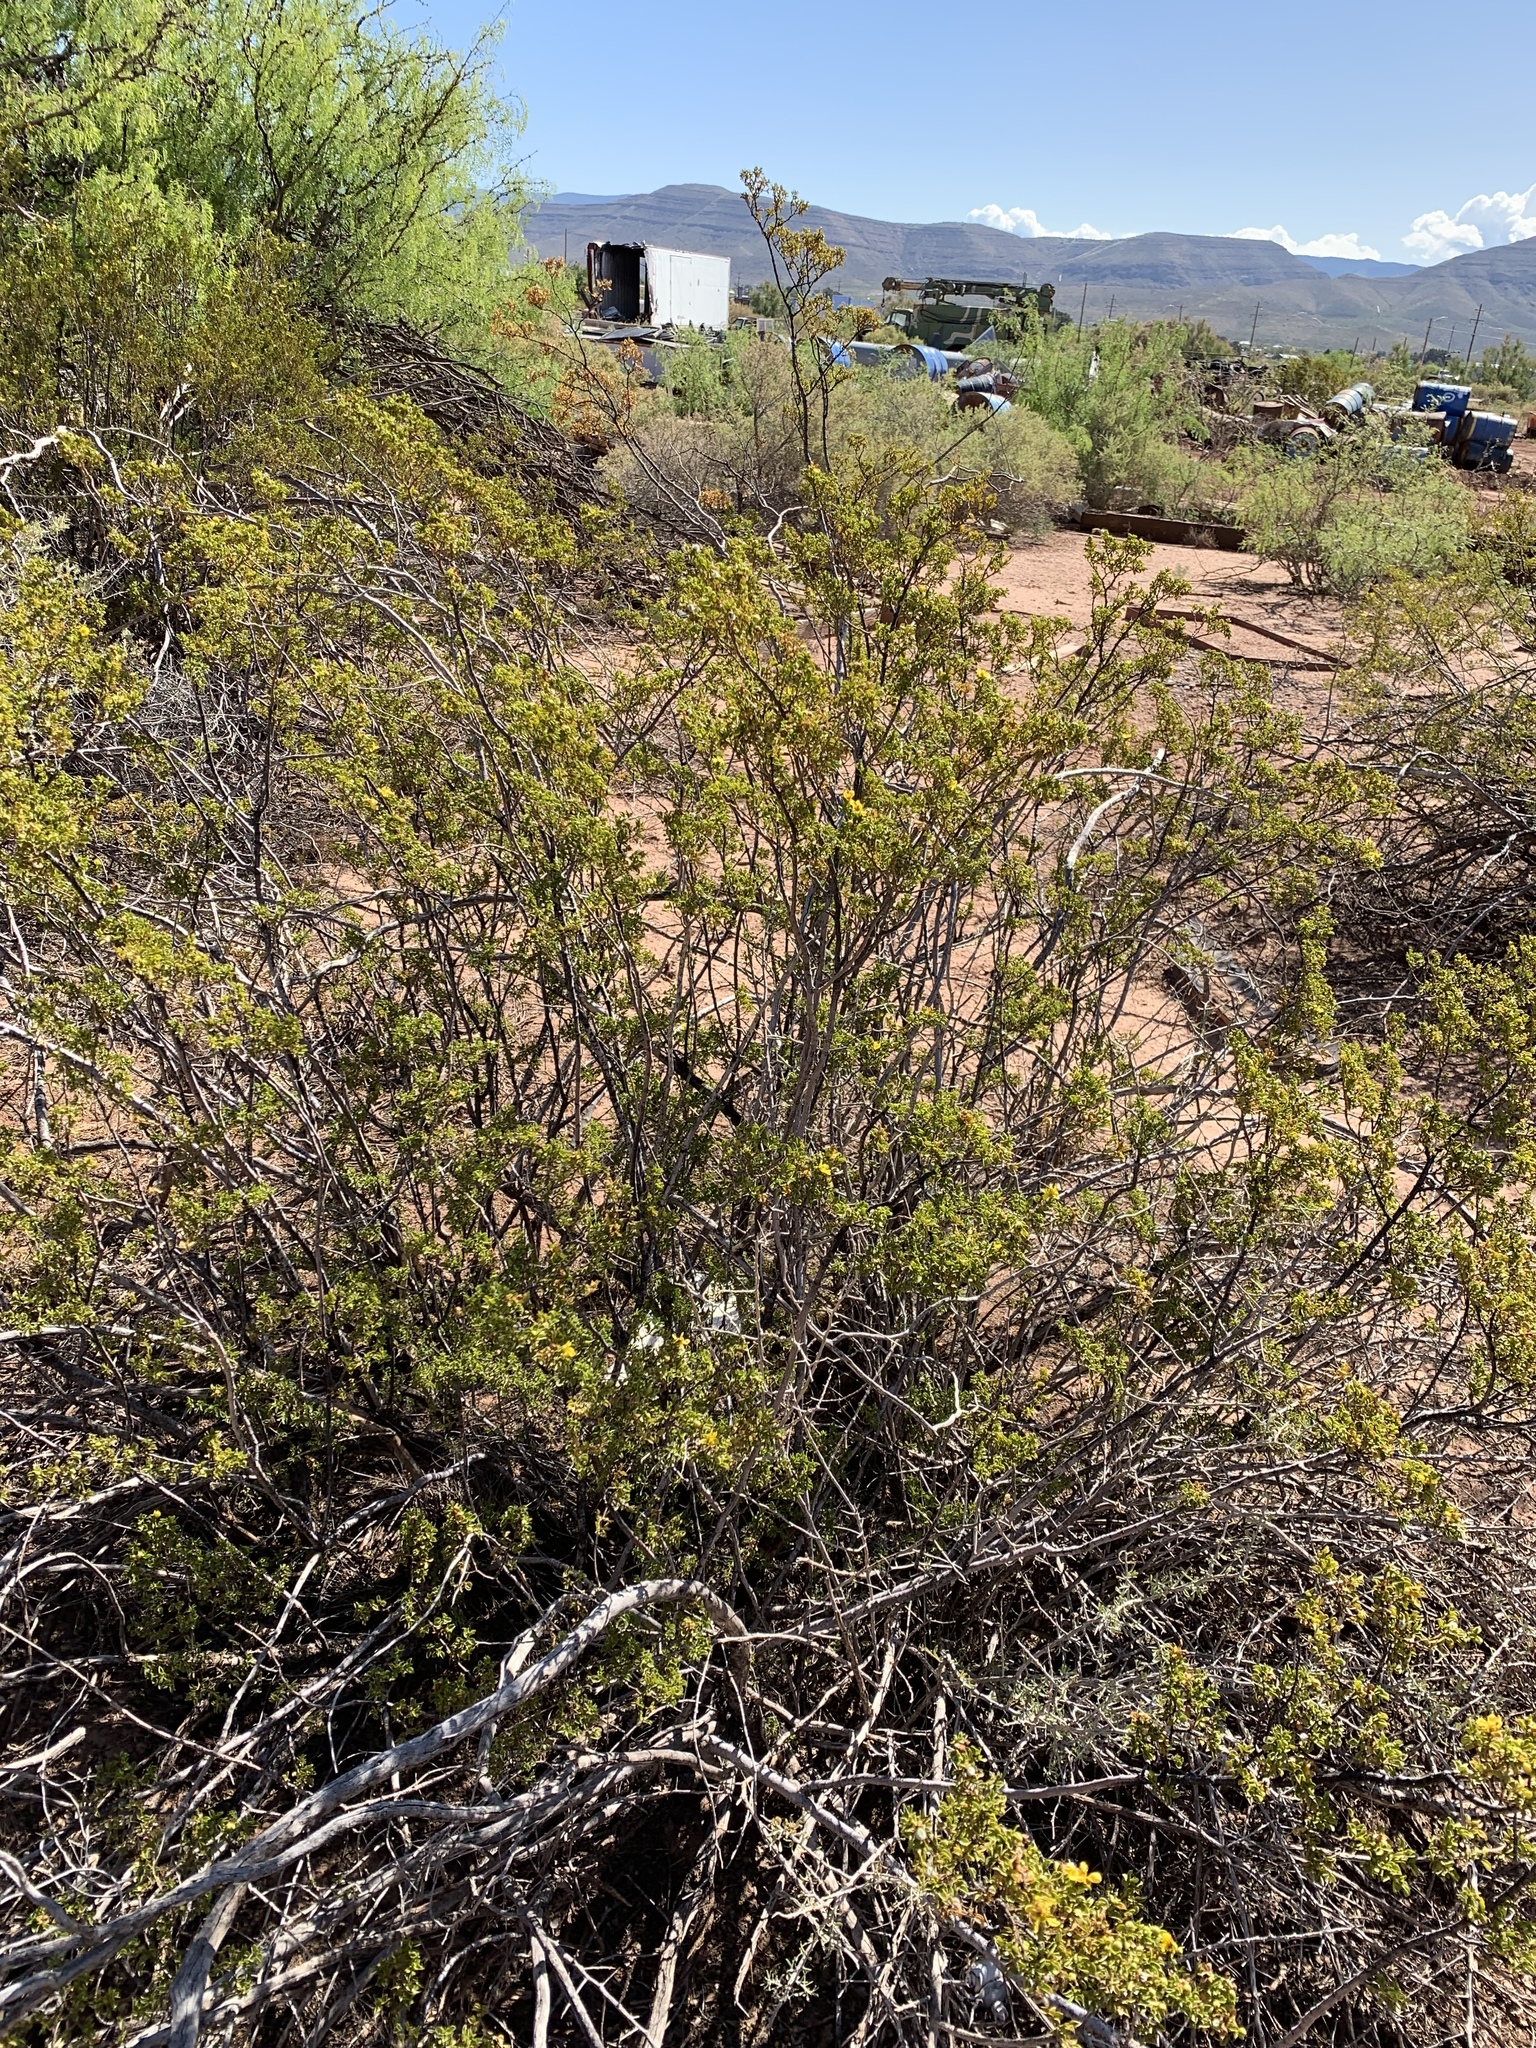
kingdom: Plantae
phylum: Tracheophyta
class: Magnoliopsida
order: Zygophyllales
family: Zygophyllaceae
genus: Larrea
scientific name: Larrea tridentata
